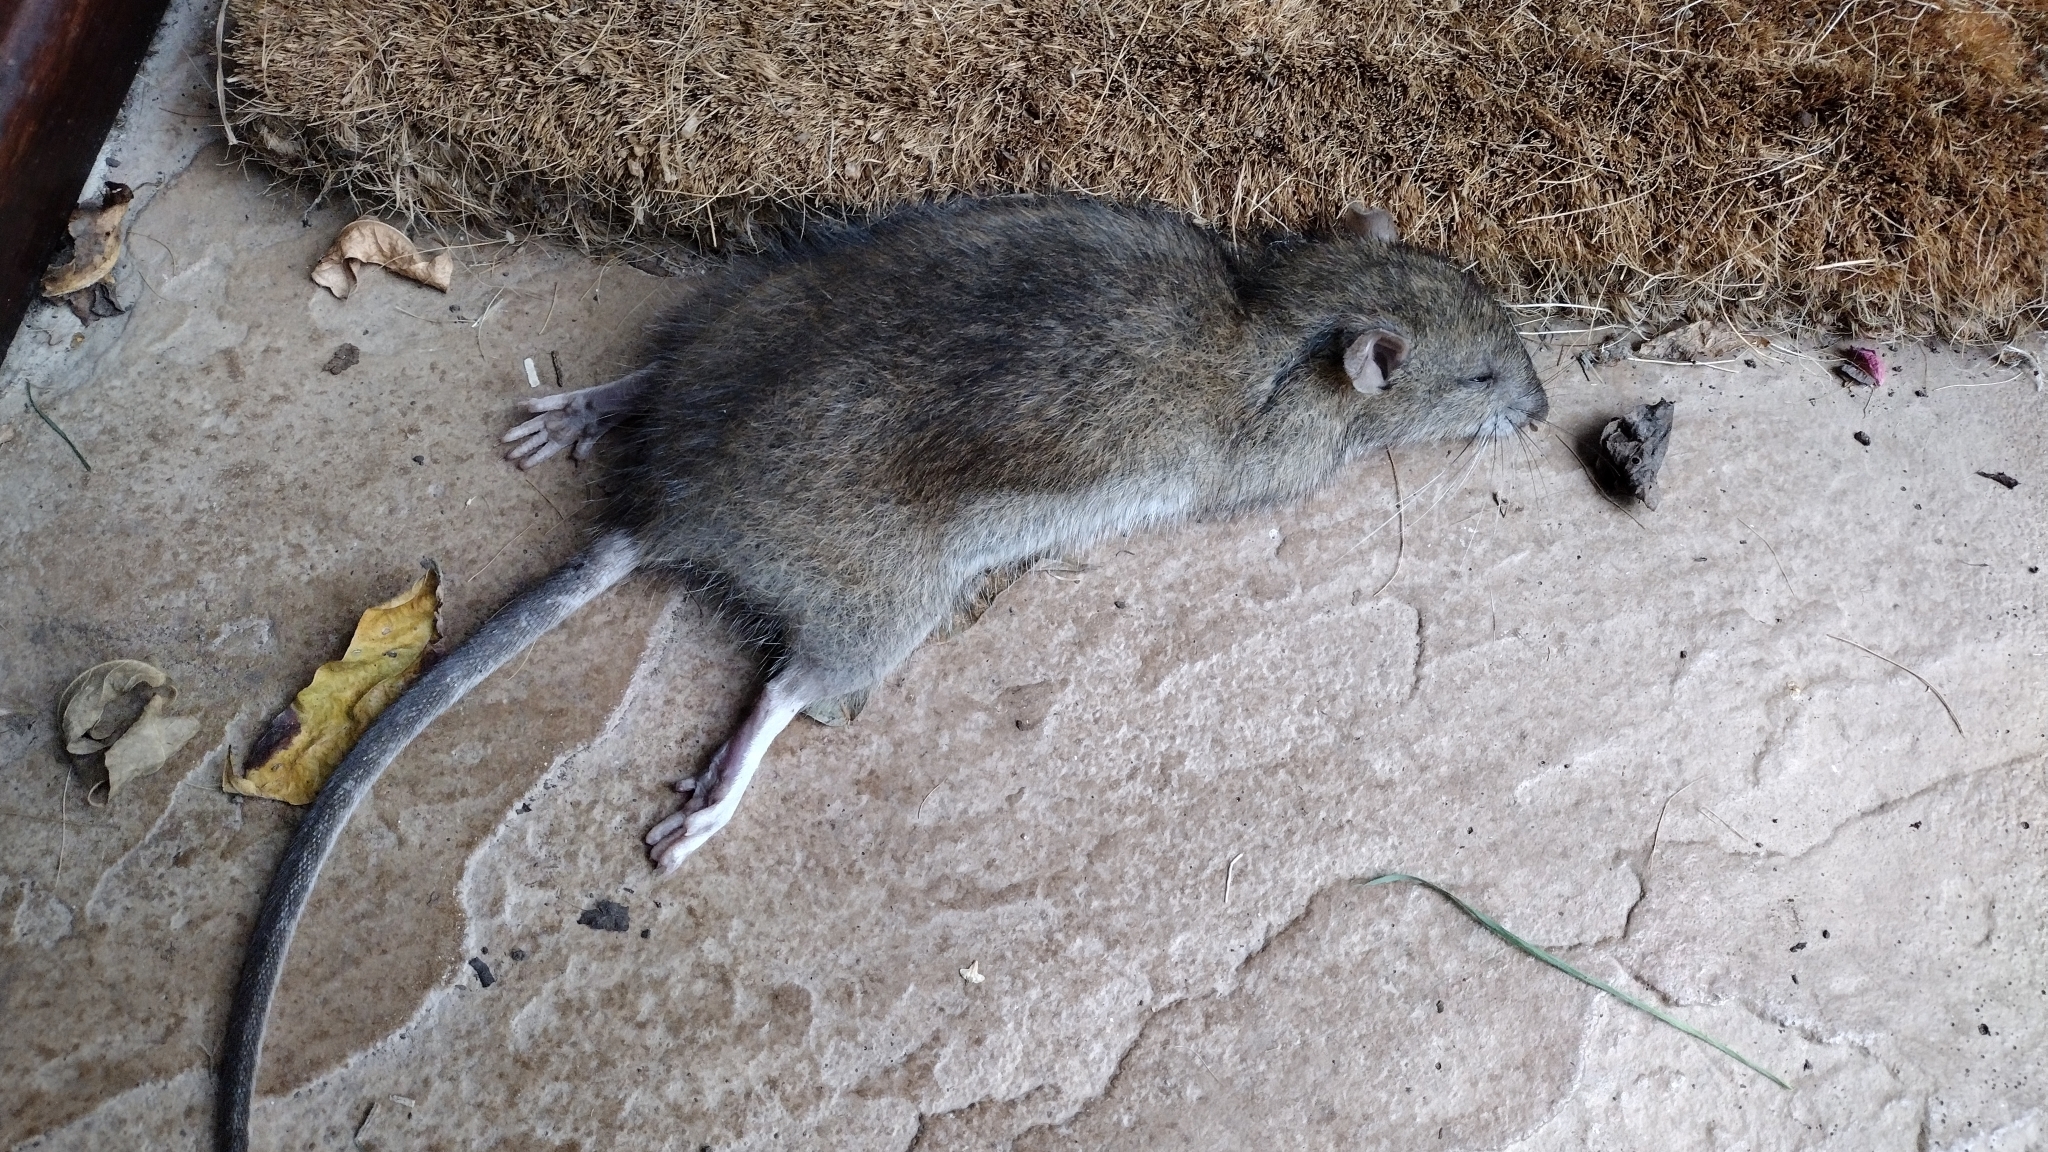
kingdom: Animalia
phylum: Chordata
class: Mammalia
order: Rodentia
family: Muridae
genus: Rattus
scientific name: Rattus norvegicus
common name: Brown rat
